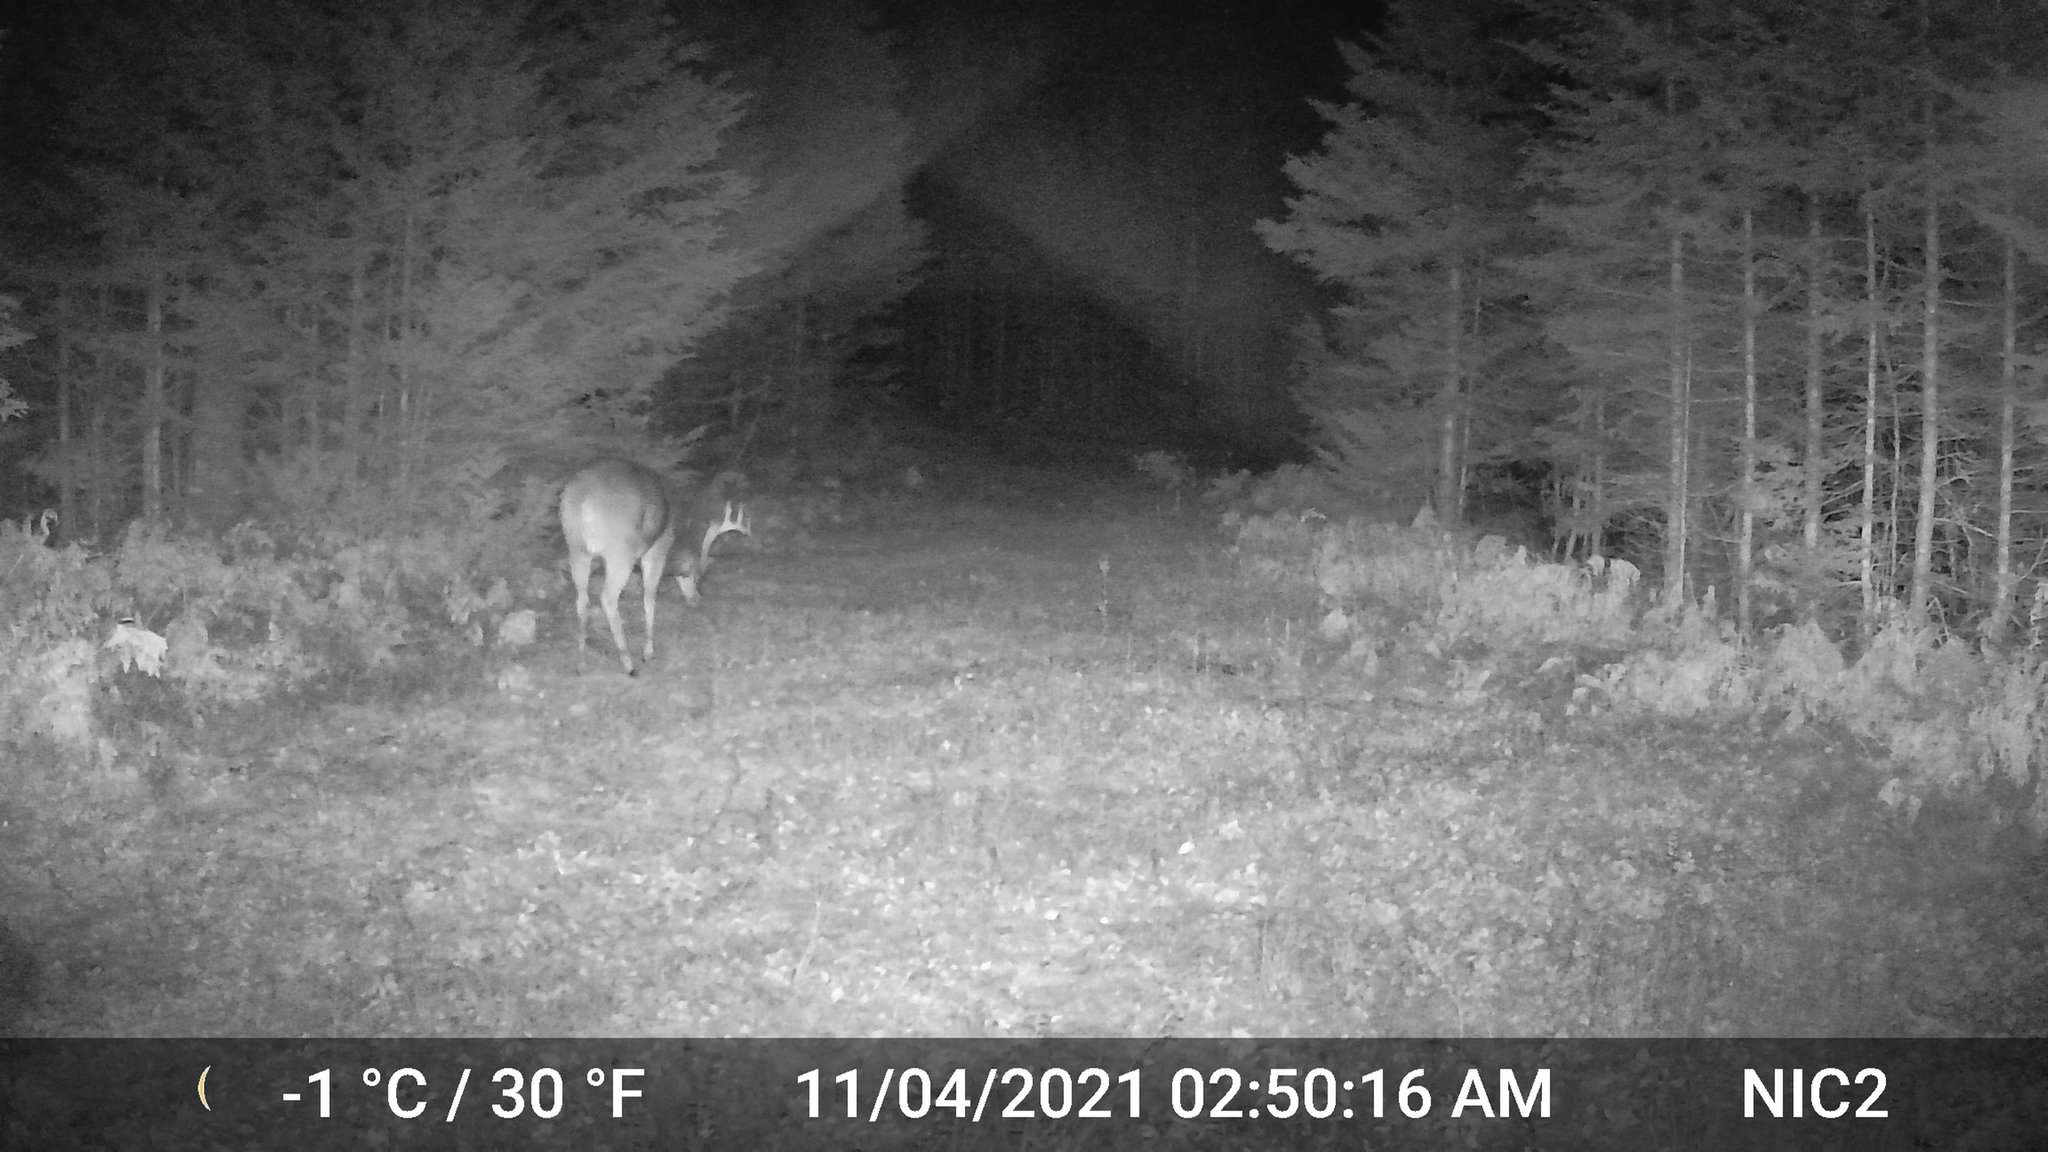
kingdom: Animalia
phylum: Chordata
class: Mammalia
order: Artiodactyla
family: Cervidae
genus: Odocoileus
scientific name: Odocoileus virginianus
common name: White-tailed deer
